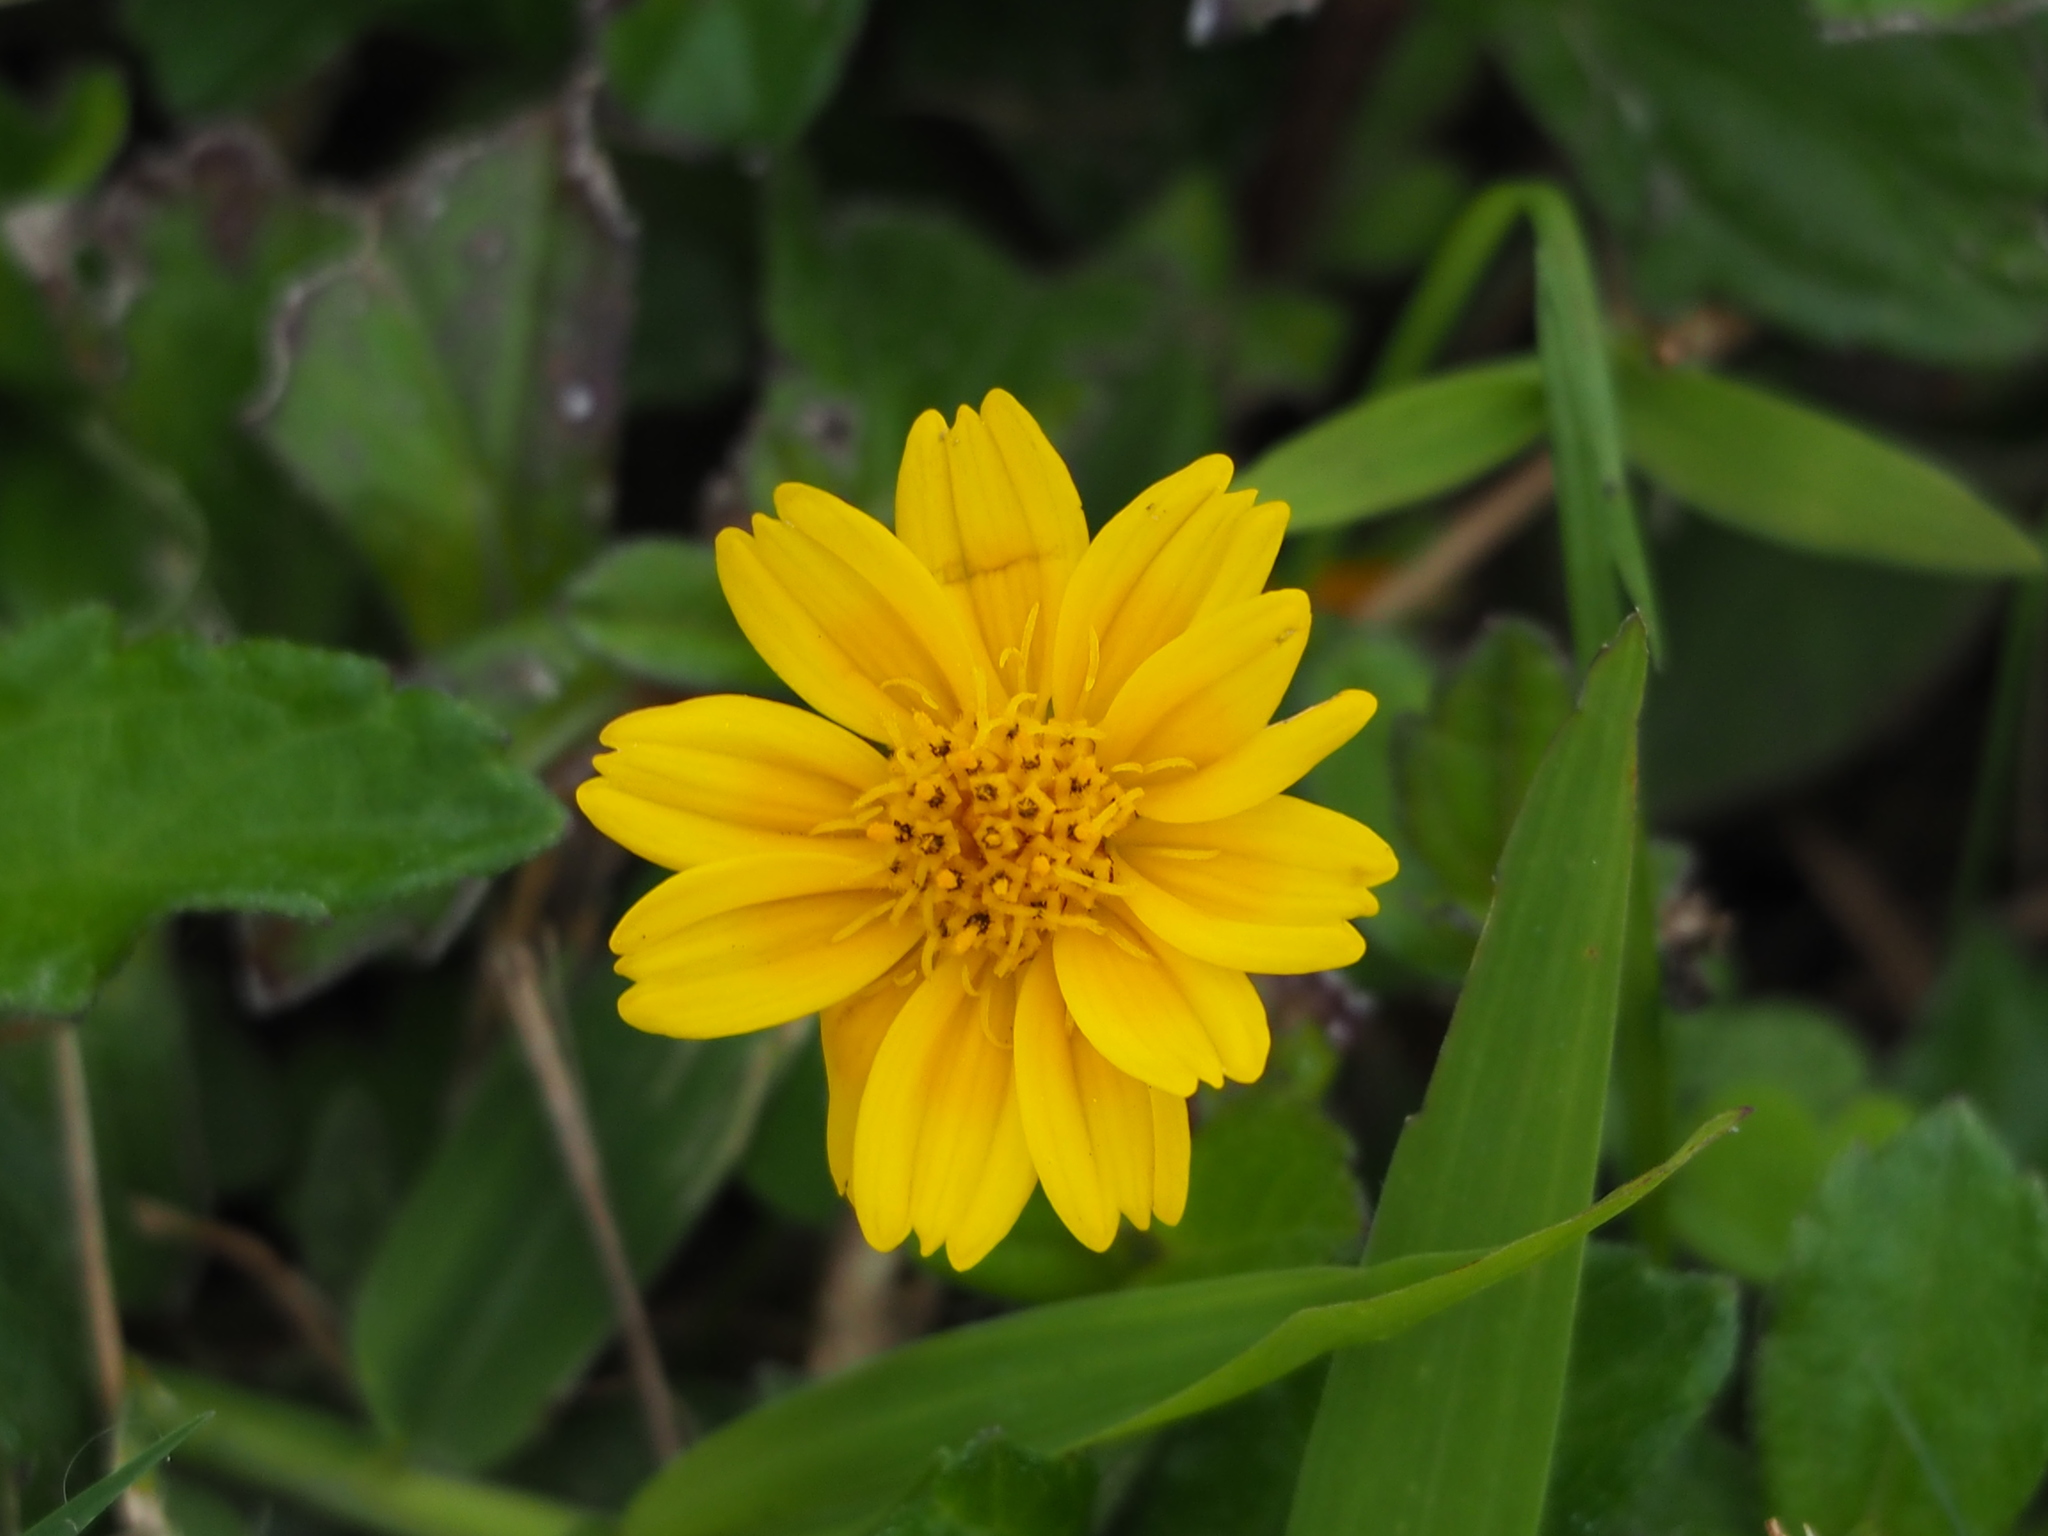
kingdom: Plantae
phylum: Tracheophyta
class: Magnoliopsida
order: Asterales
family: Asteraceae
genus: Sphagneticola
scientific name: Sphagneticola trilobata
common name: Bay biscayne creeping-oxeye
